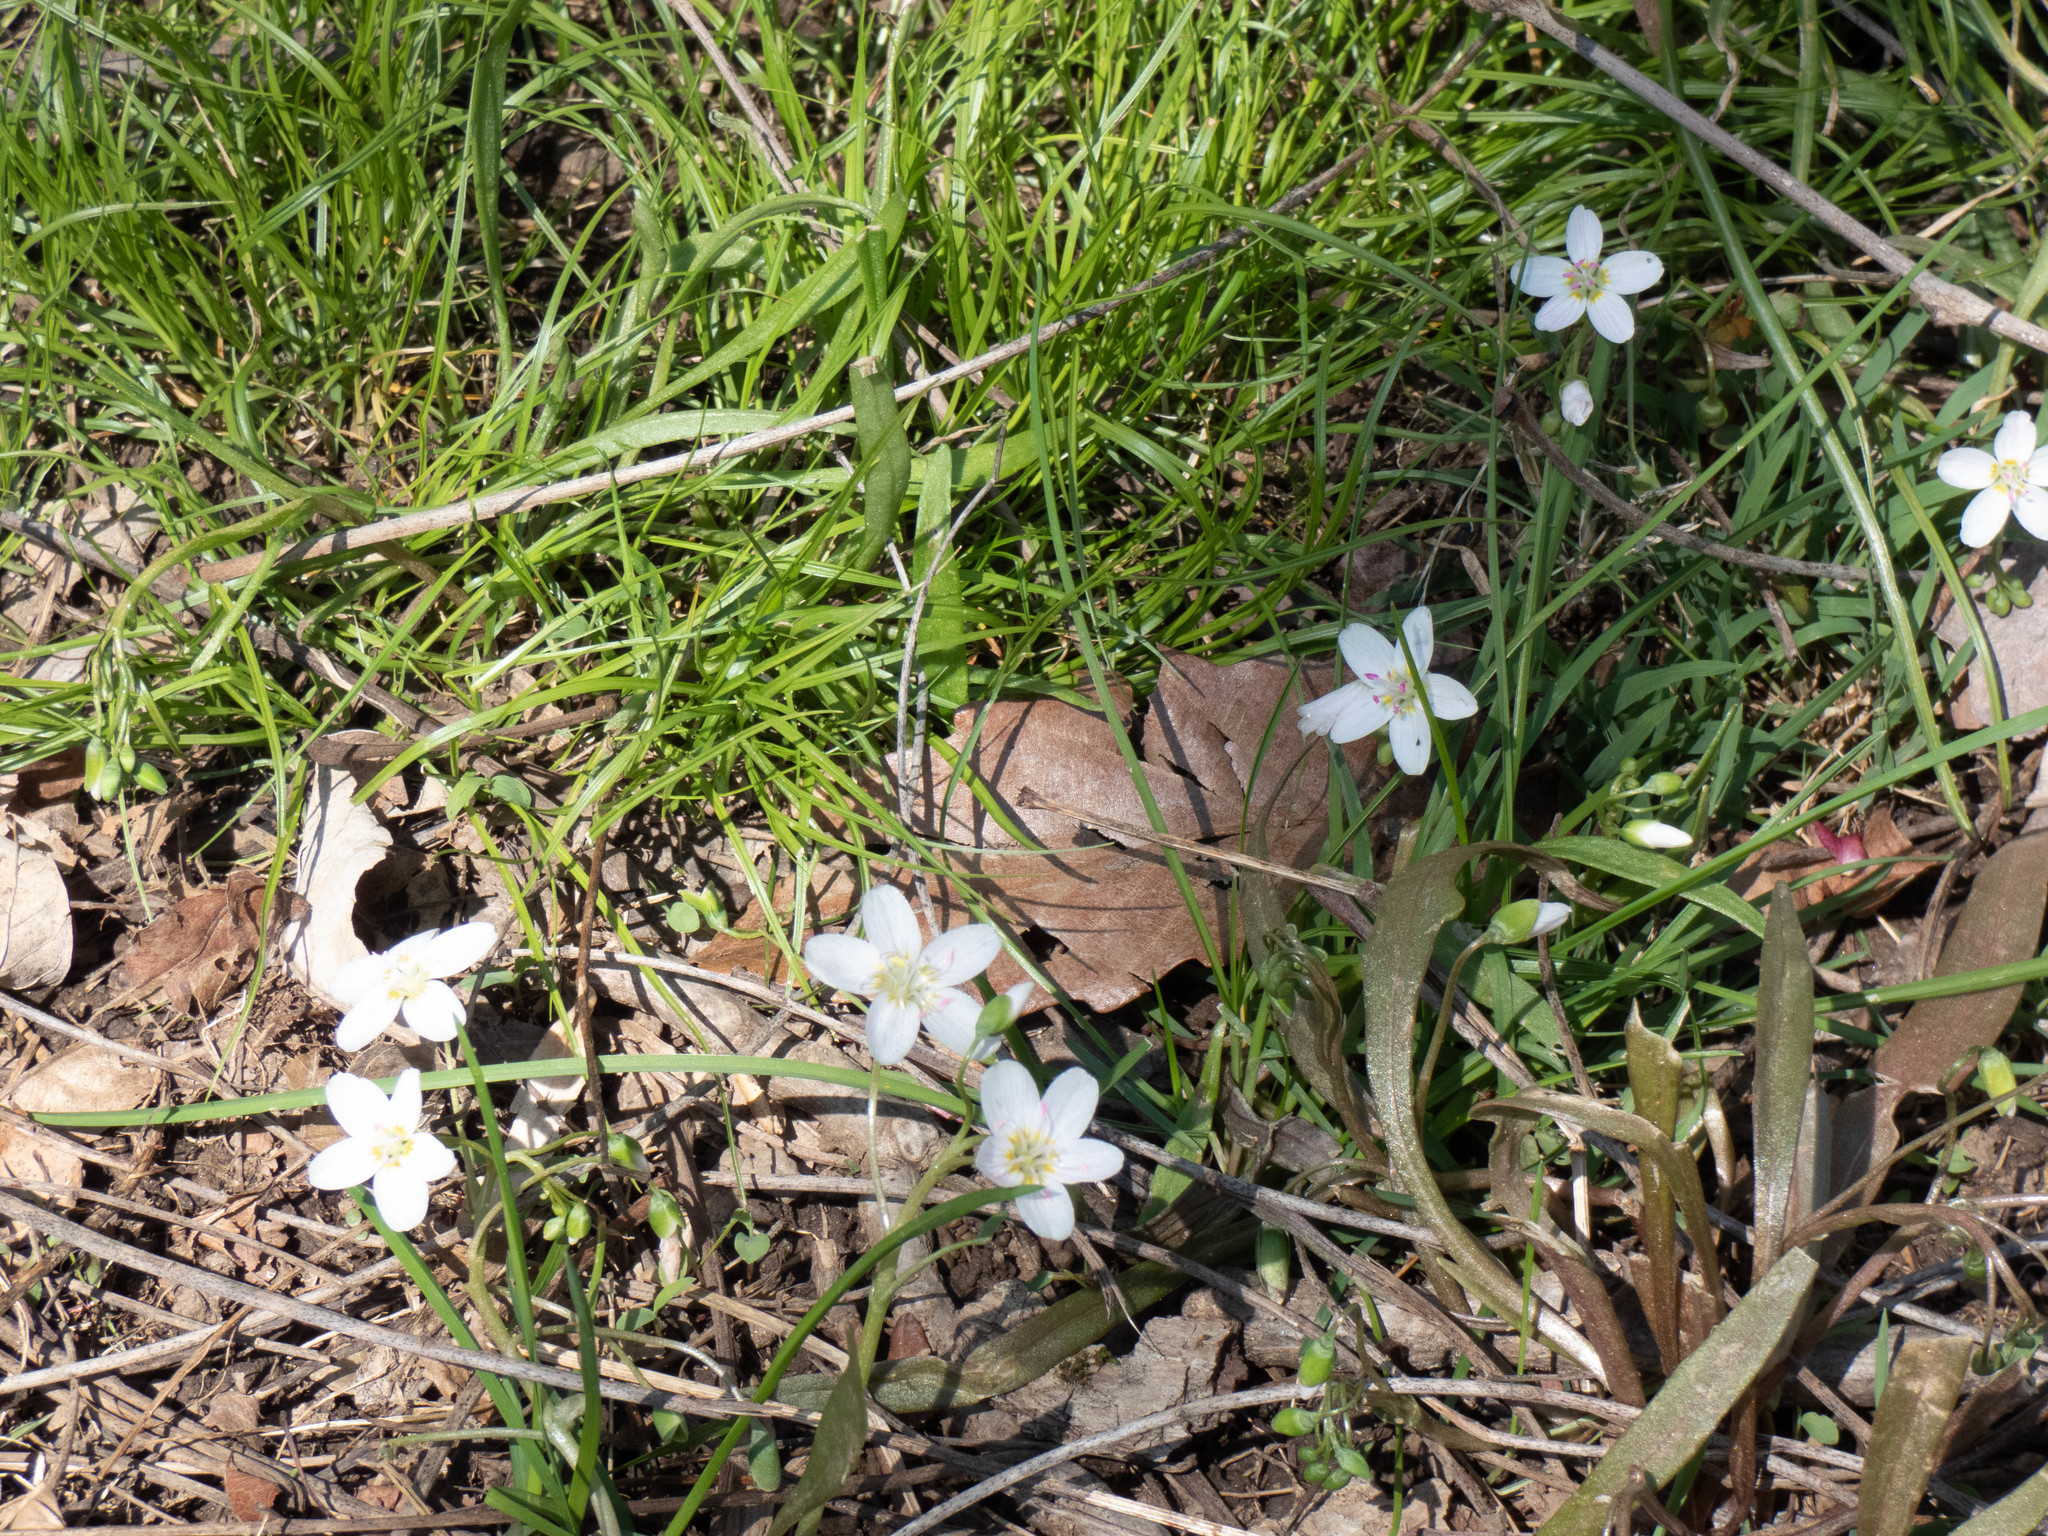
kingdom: Plantae
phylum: Tracheophyta
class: Magnoliopsida
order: Caryophyllales
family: Montiaceae
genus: Claytonia
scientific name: Claytonia virginica
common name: Virginia springbeauty
